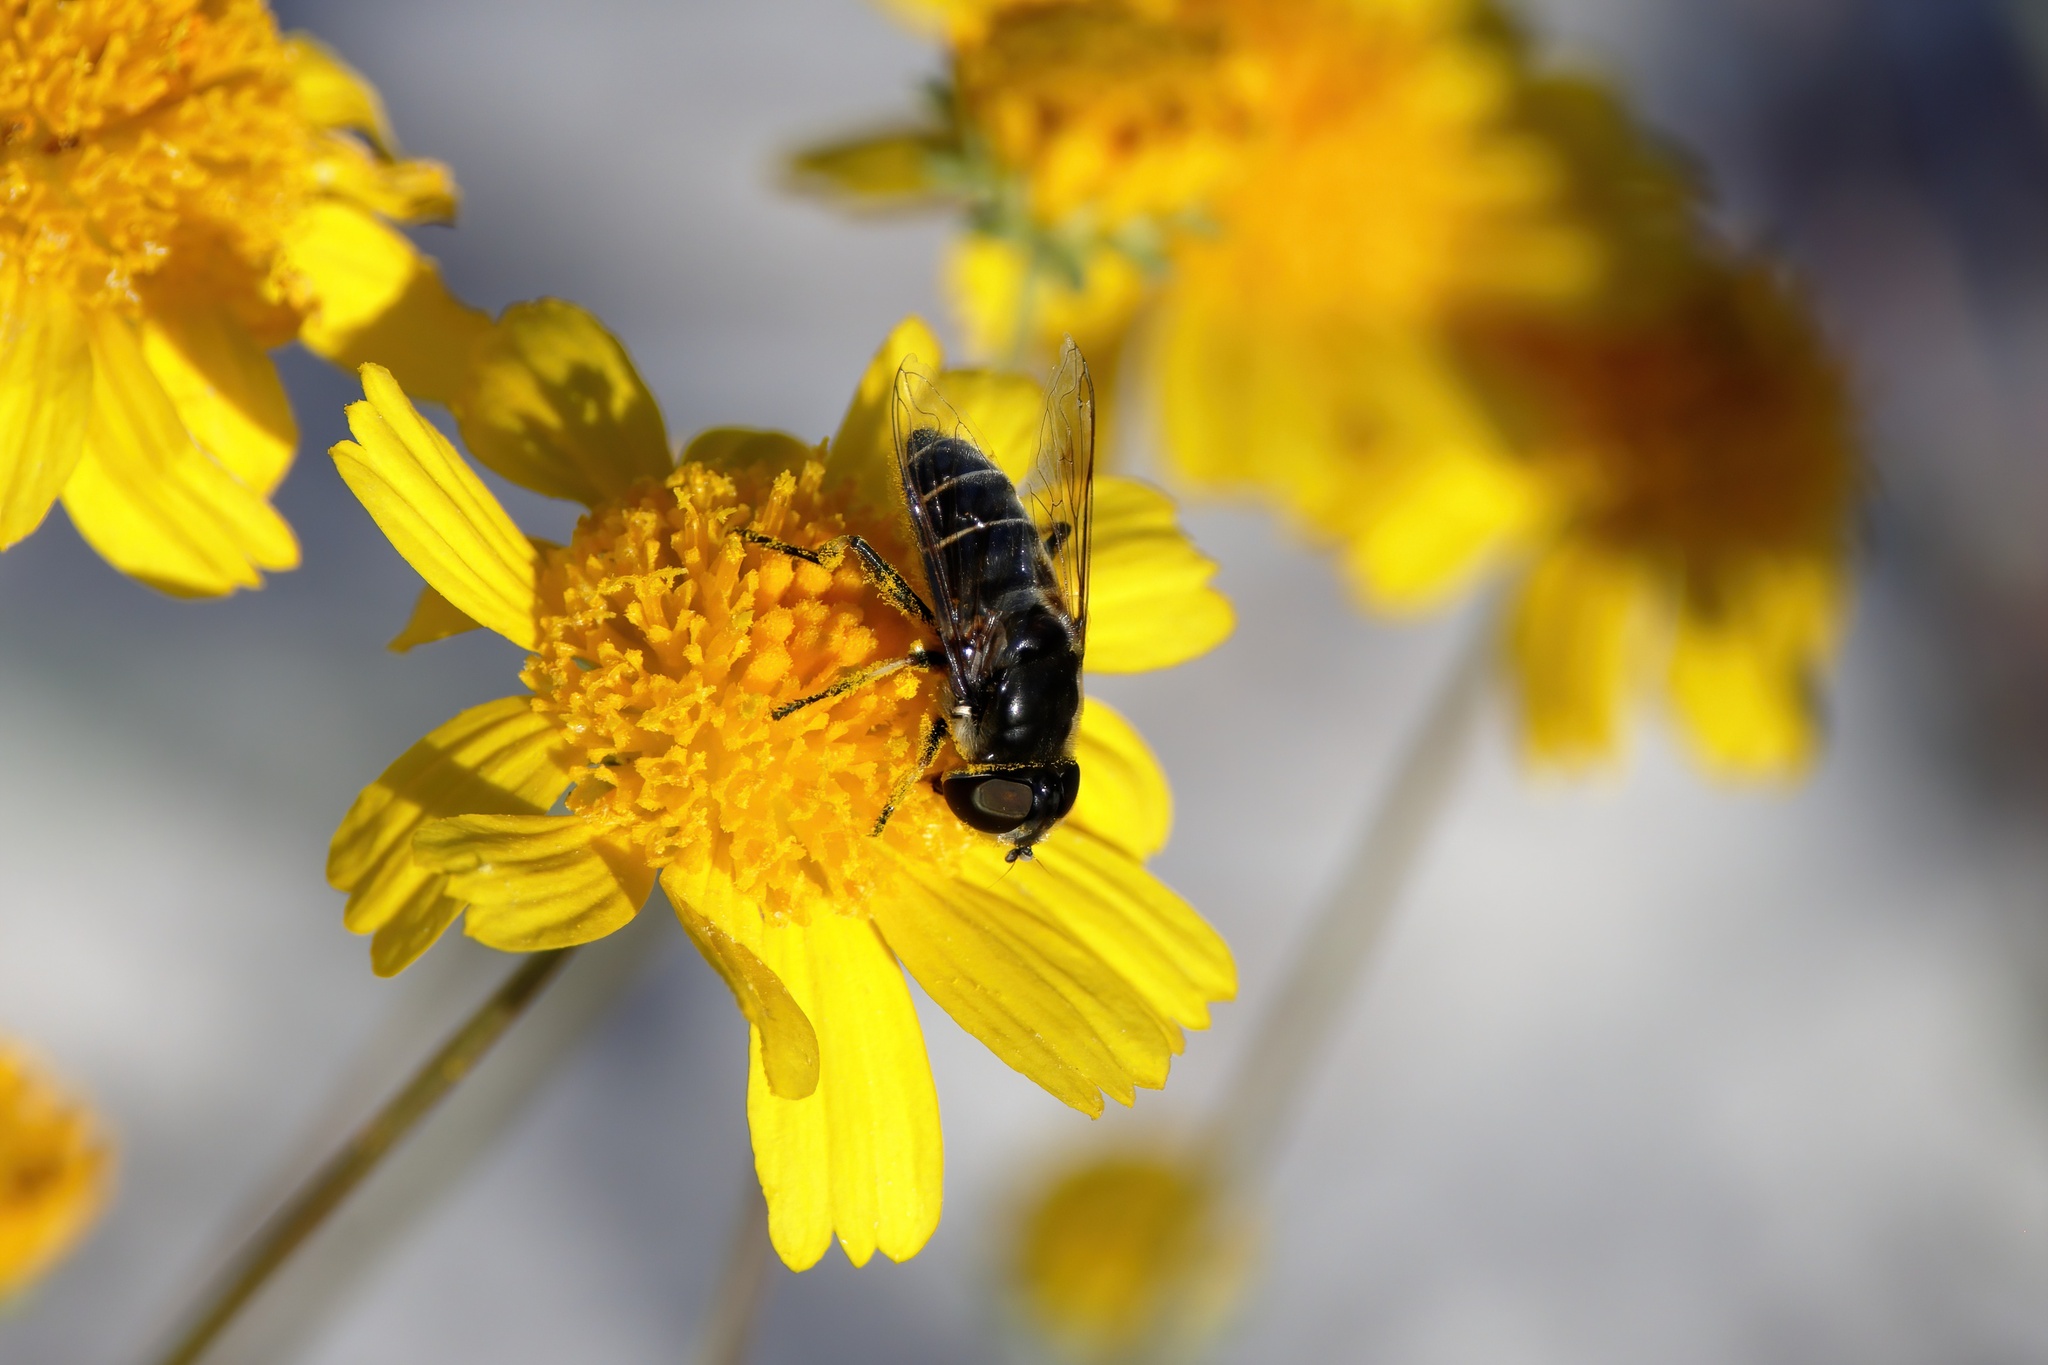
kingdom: Animalia
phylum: Arthropoda
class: Insecta
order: Diptera
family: Syrphidae
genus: Eristalis
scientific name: Eristalis dimidiata
